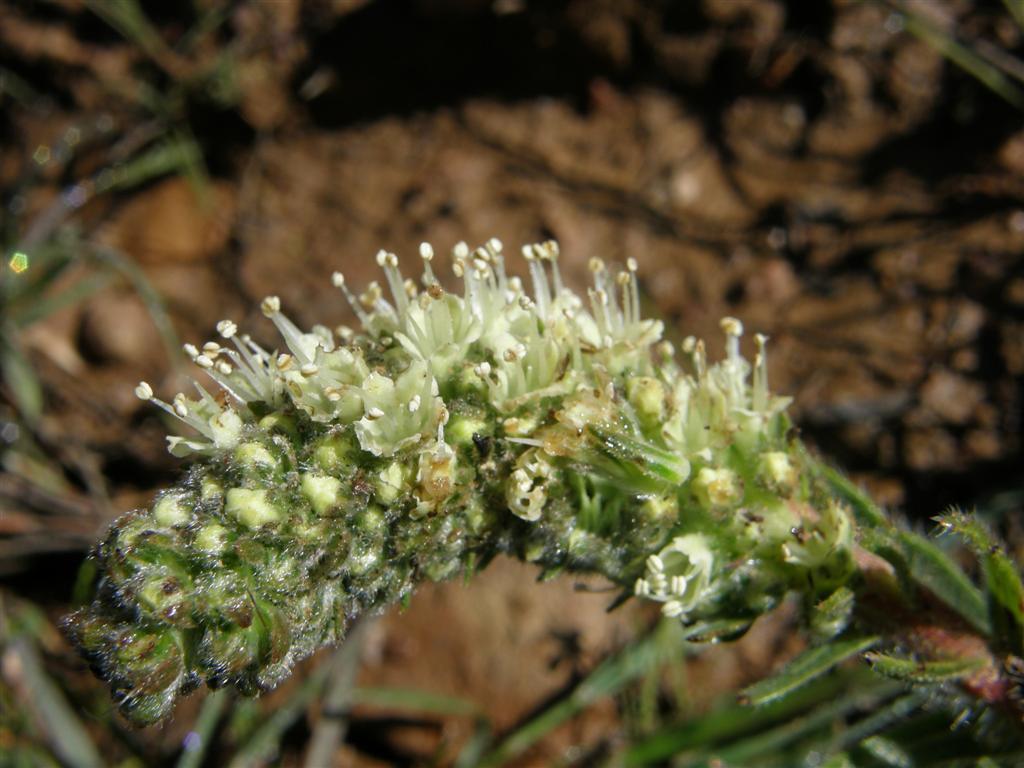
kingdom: Plantae
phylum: Tracheophyta
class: Magnoliopsida
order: Boraginales
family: Boraginaceae
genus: Lobostemon
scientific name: Lobostemon splendens
